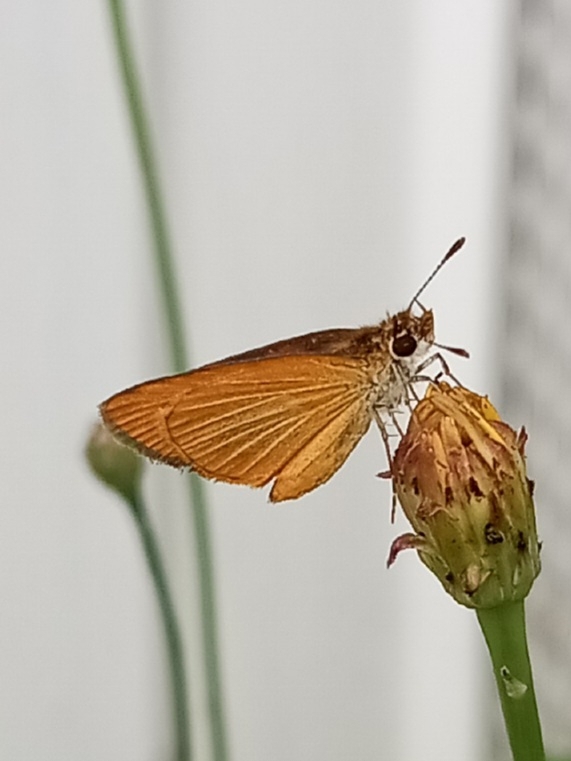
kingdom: Animalia
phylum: Arthropoda
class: Insecta
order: Lepidoptera
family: Hesperiidae
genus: Ancyloxypha
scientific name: Ancyloxypha numitor
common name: Least skipper
